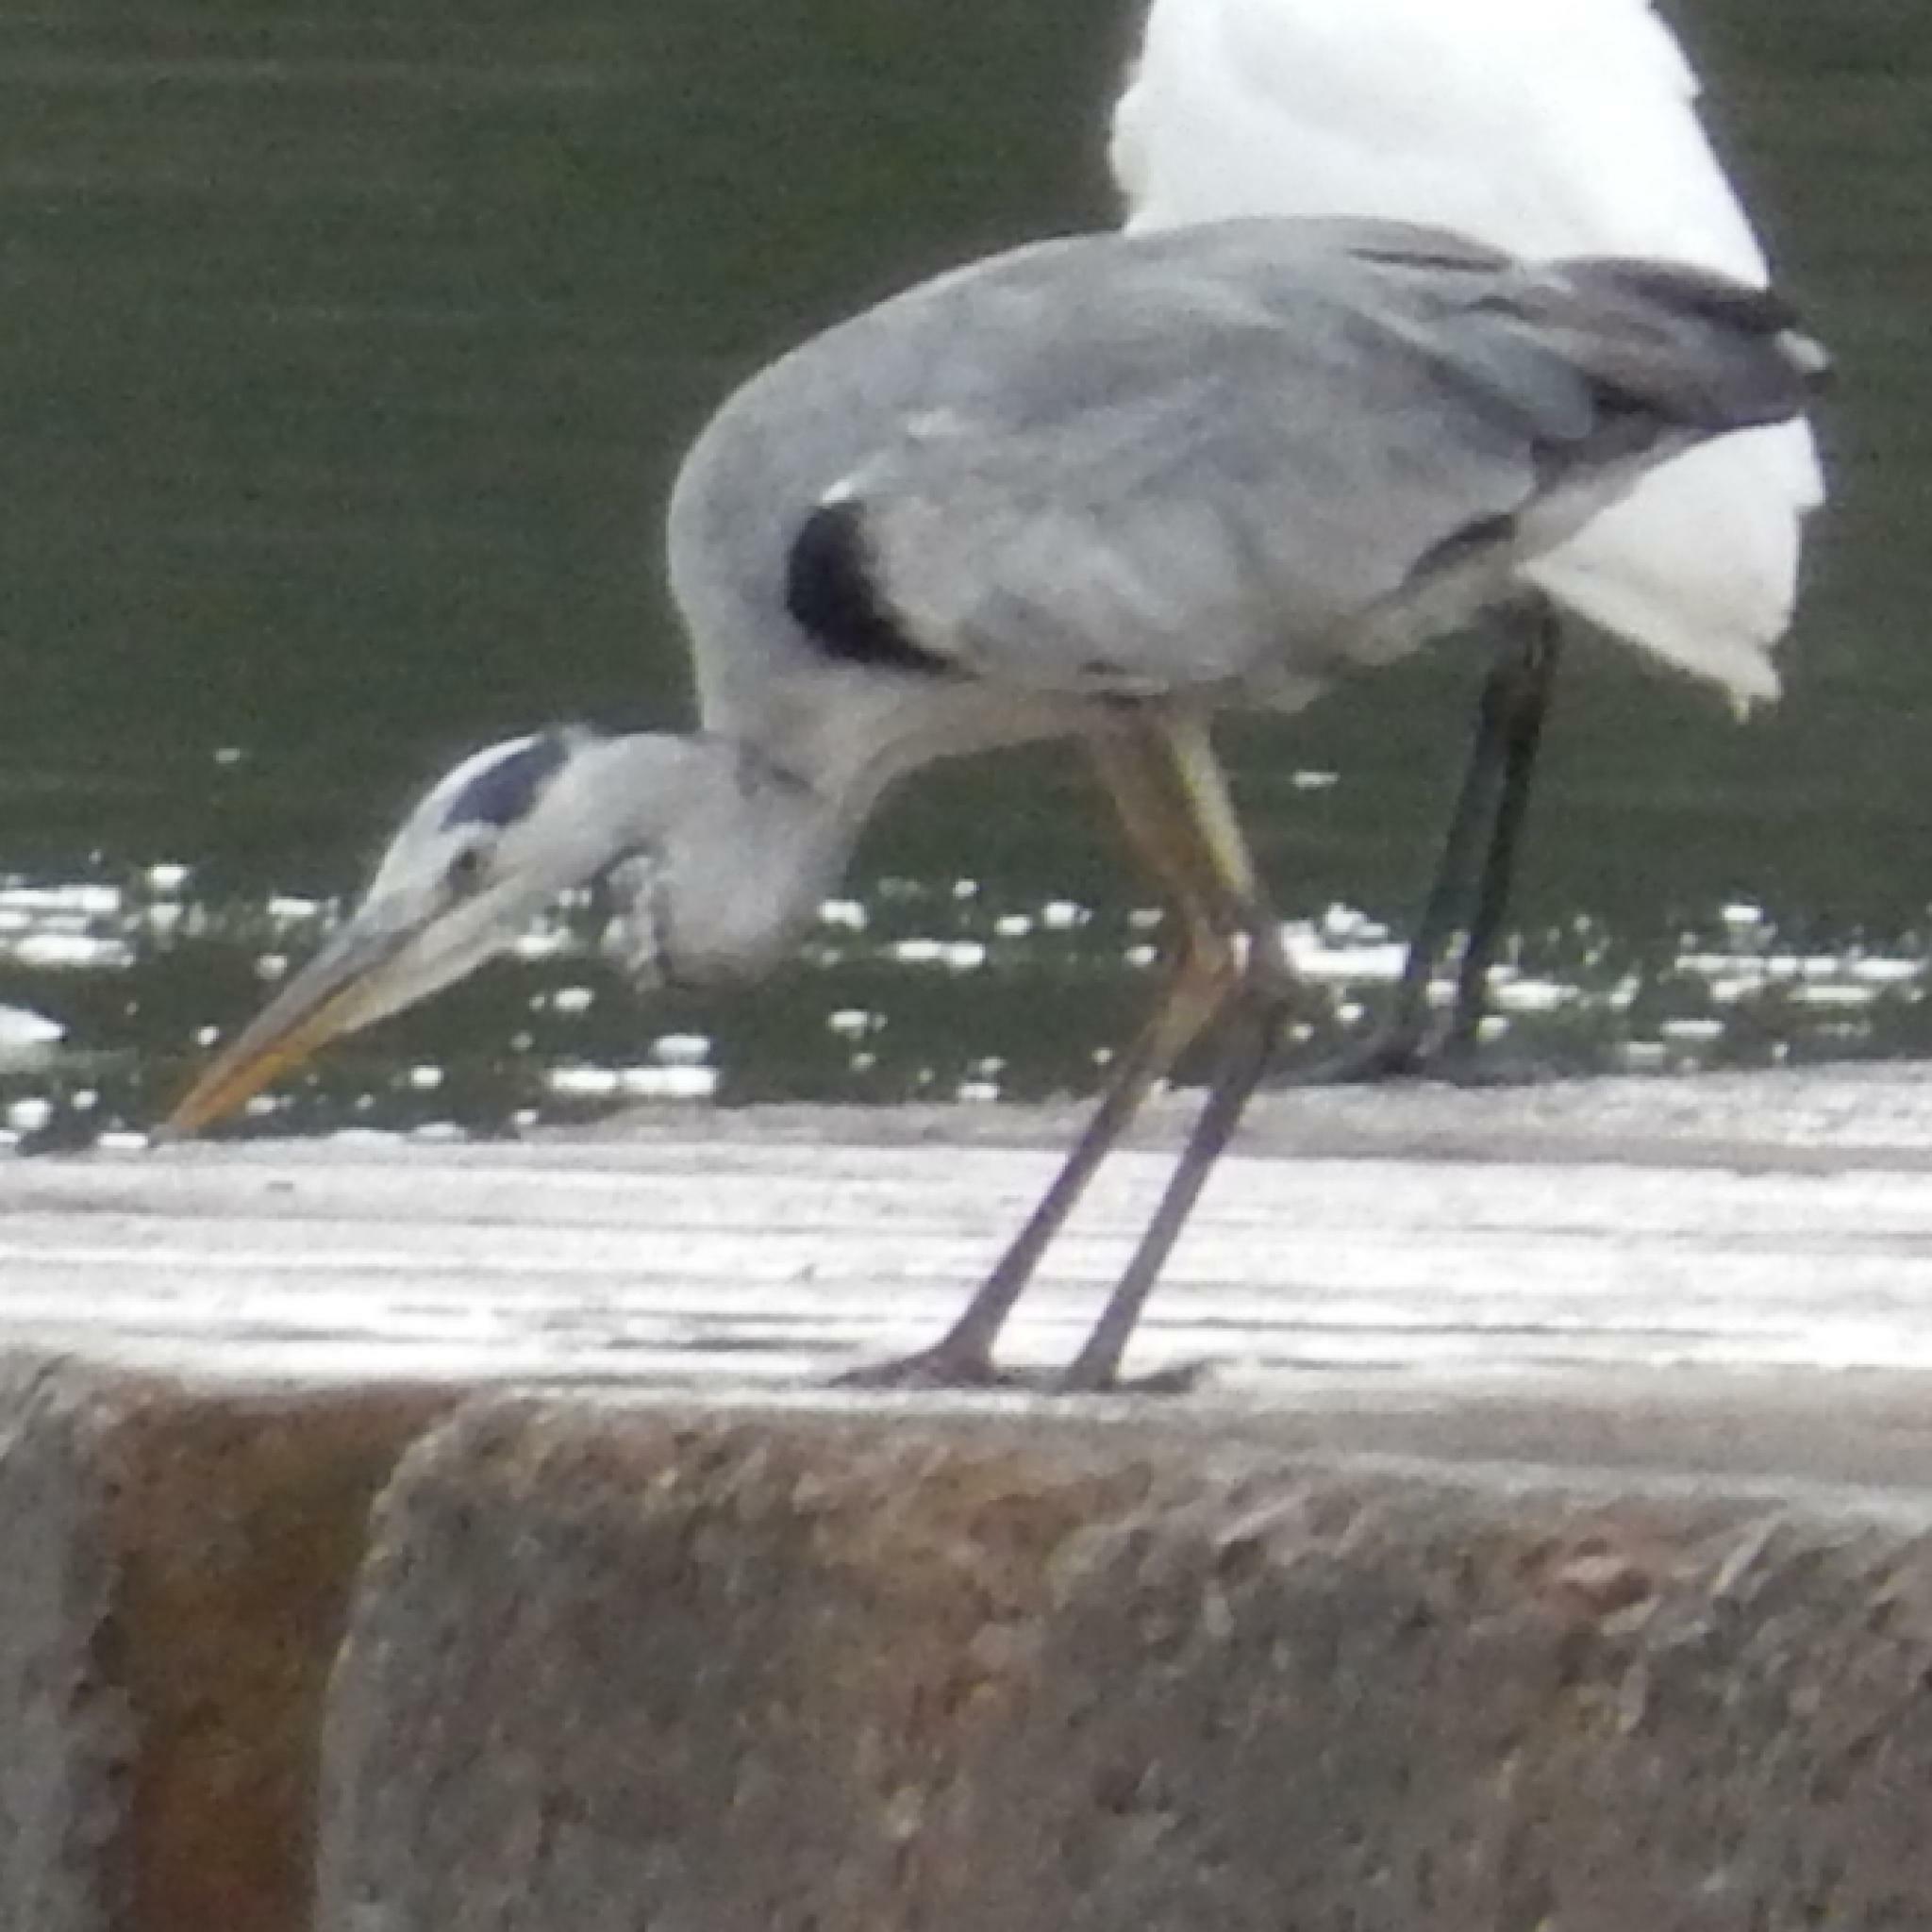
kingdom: Animalia
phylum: Chordata
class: Aves
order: Pelecaniformes
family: Ardeidae
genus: Ardea
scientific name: Ardea cinerea
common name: Grey heron
